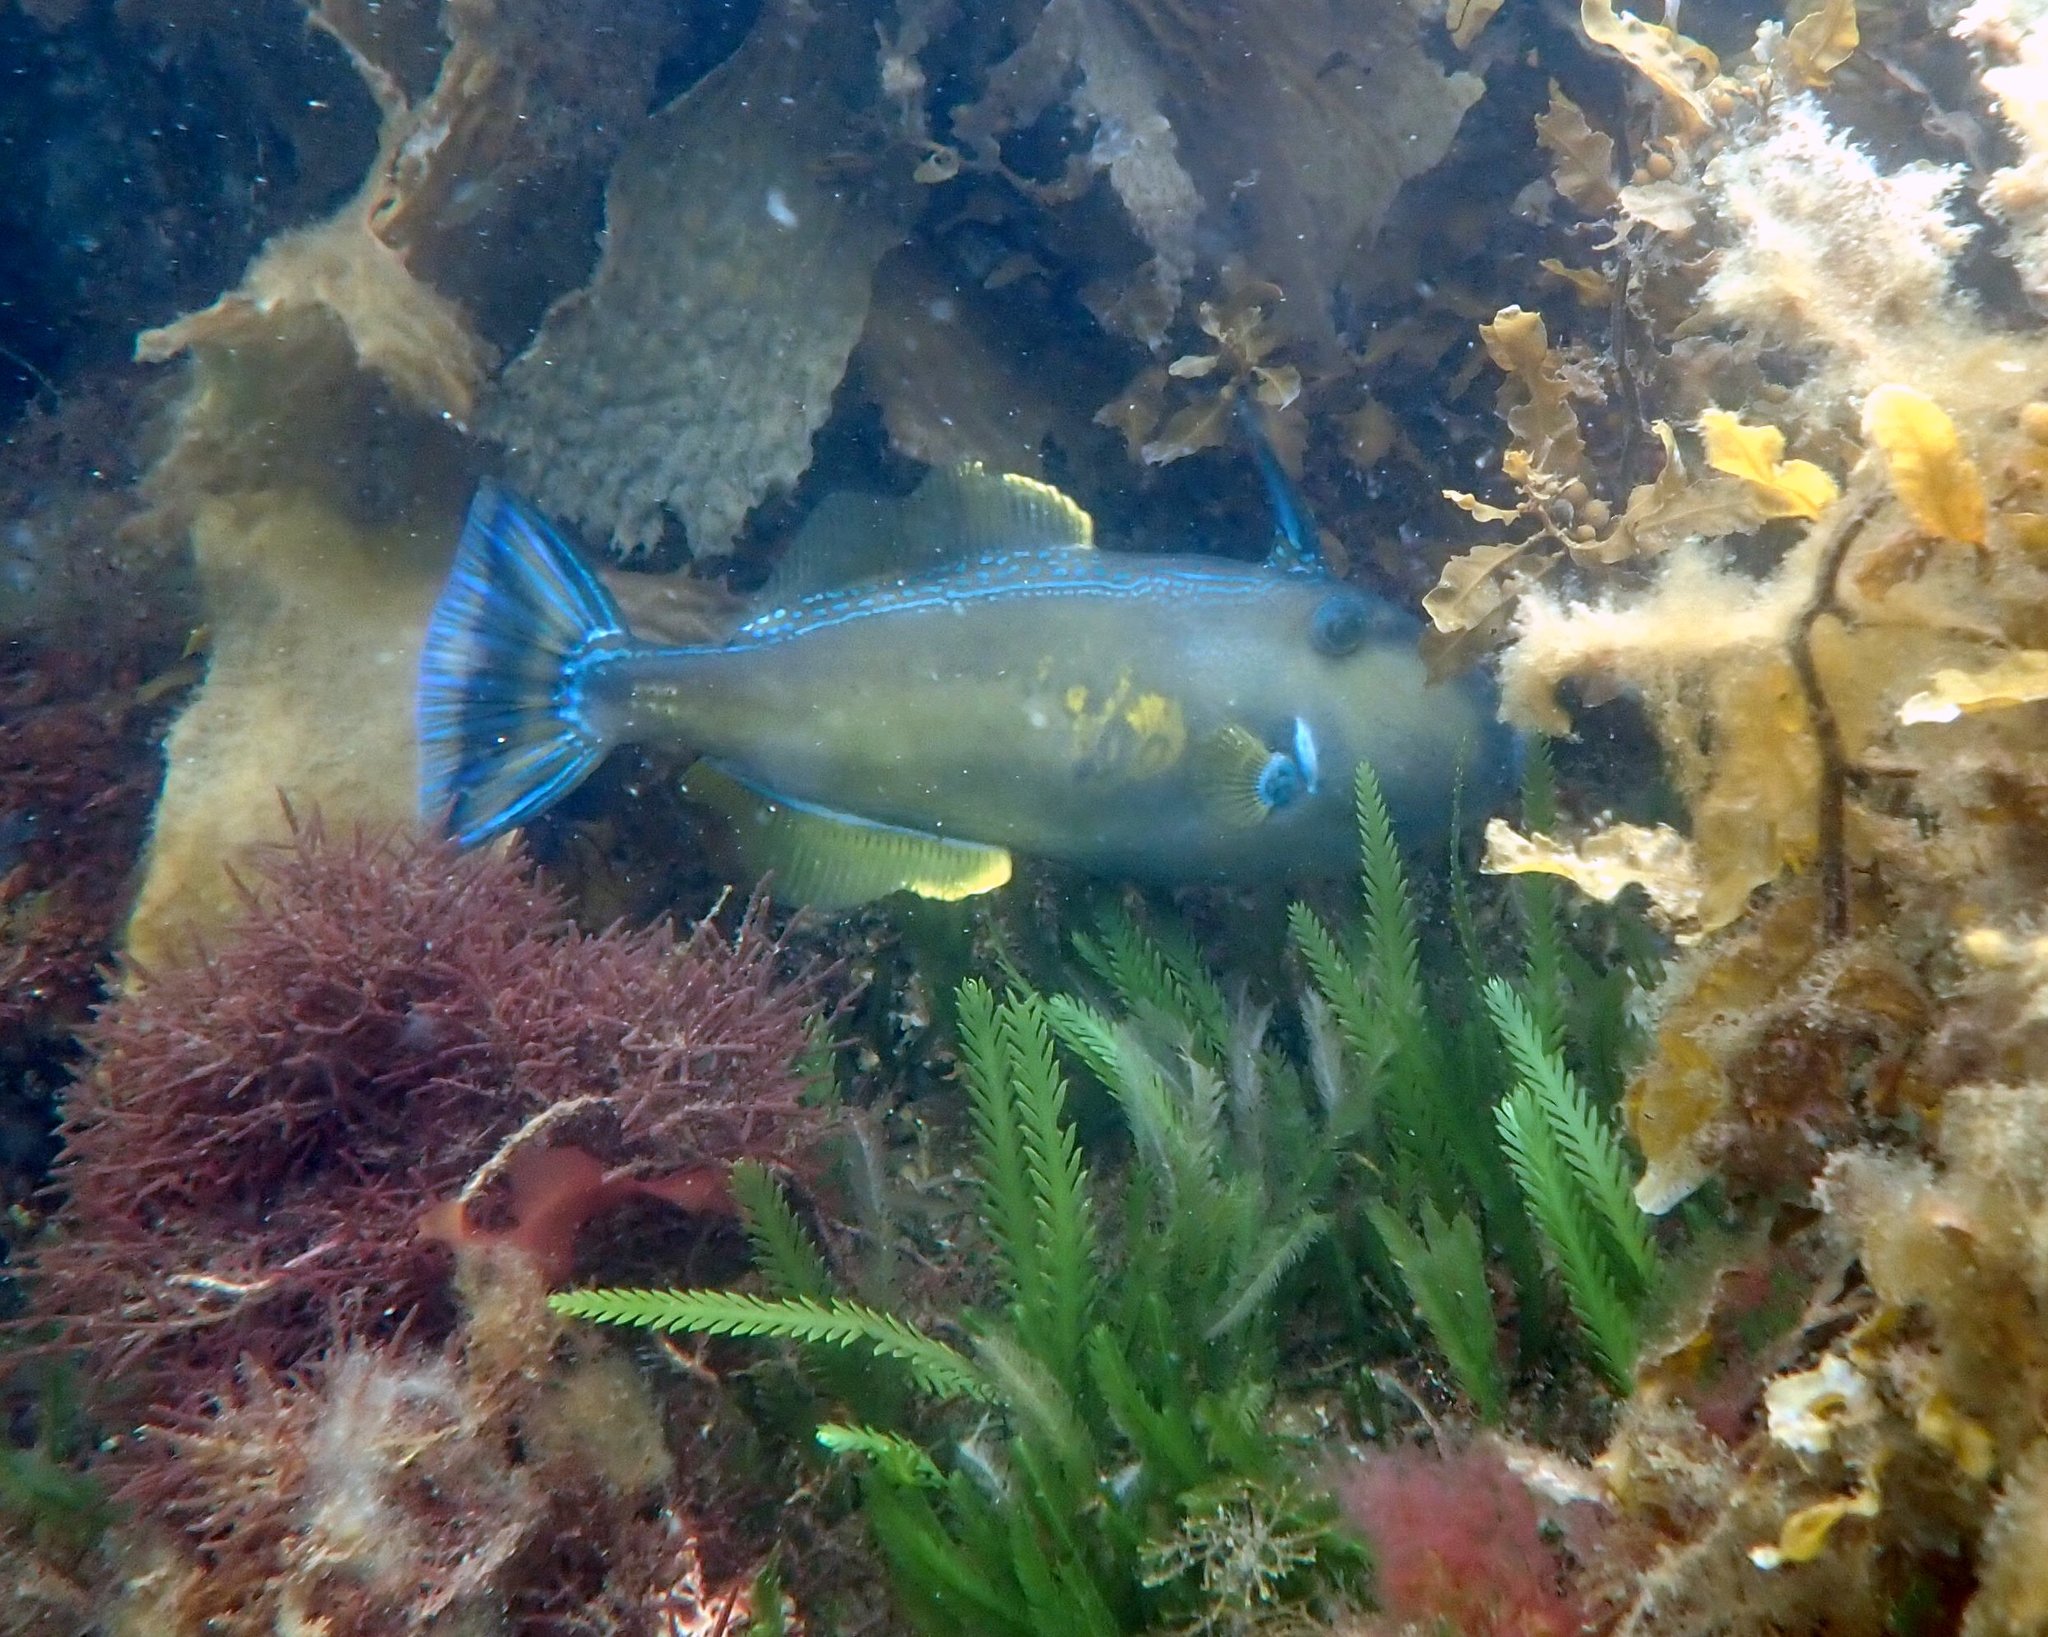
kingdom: Animalia
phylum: Chordata
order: Tetraodontiformes
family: Monacanthidae
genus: Meuschenia
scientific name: Meuschenia freycineti
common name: Freycinet's leatherjacket
